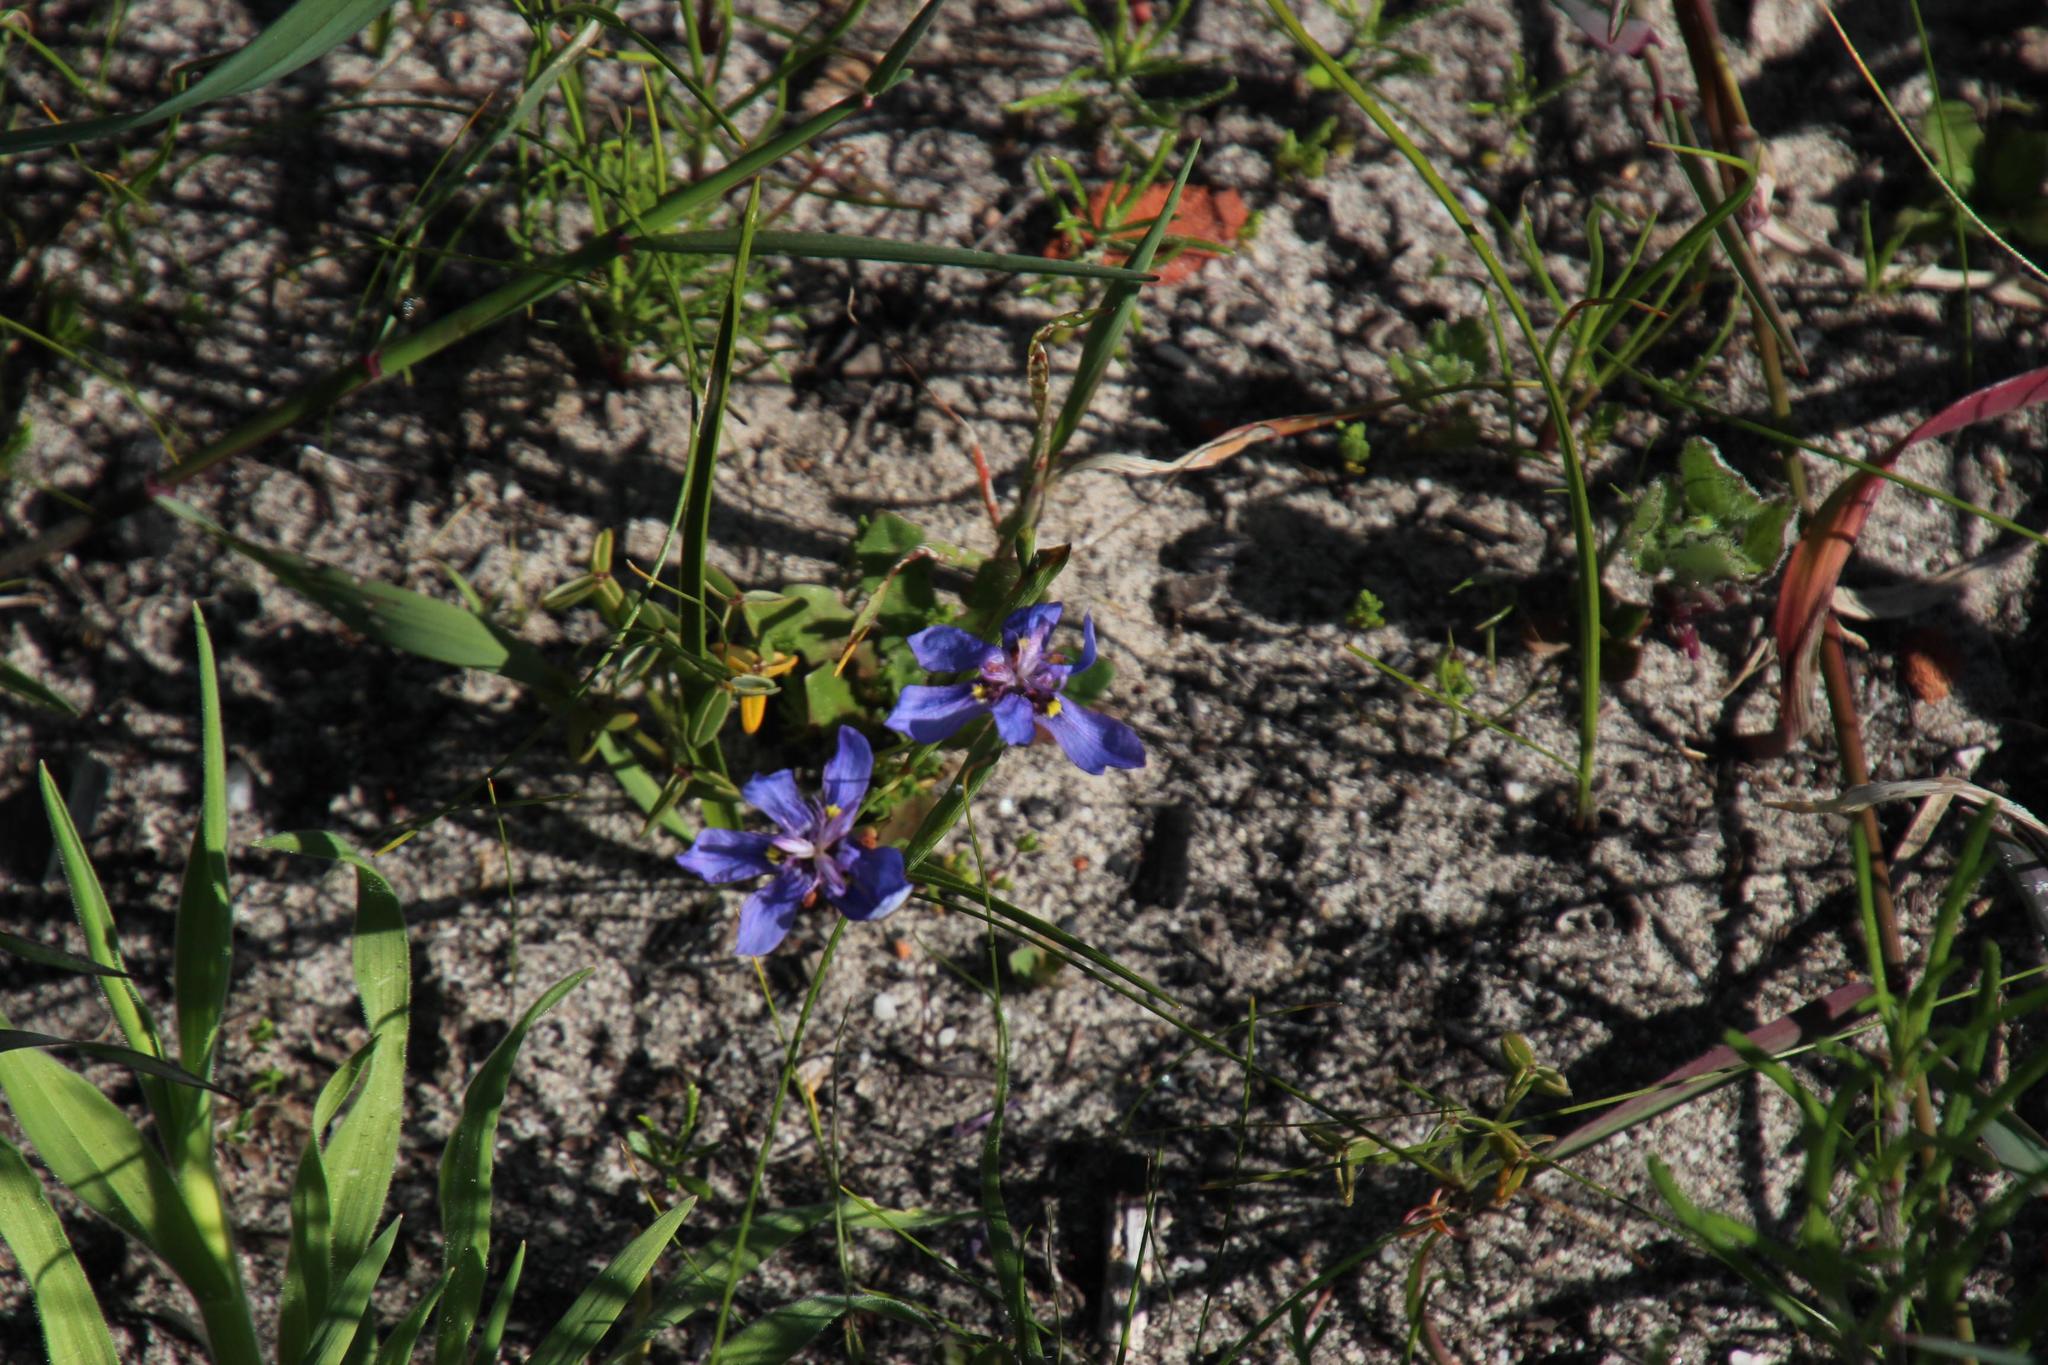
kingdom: Plantae
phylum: Tracheophyta
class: Liliopsida
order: Asparagales
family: Iridaceae
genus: Moraea
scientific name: Moraea lugubris
